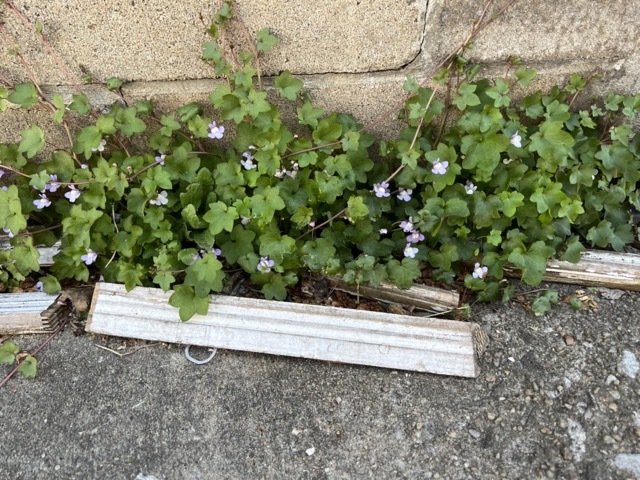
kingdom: Plantae
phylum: Tracheophyta
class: Magnoliopsida
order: Lamiales
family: Plantaginaceae
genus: Cymbalaria
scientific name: Cymbalaria muralis
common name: Ivy-leaved toadflax
